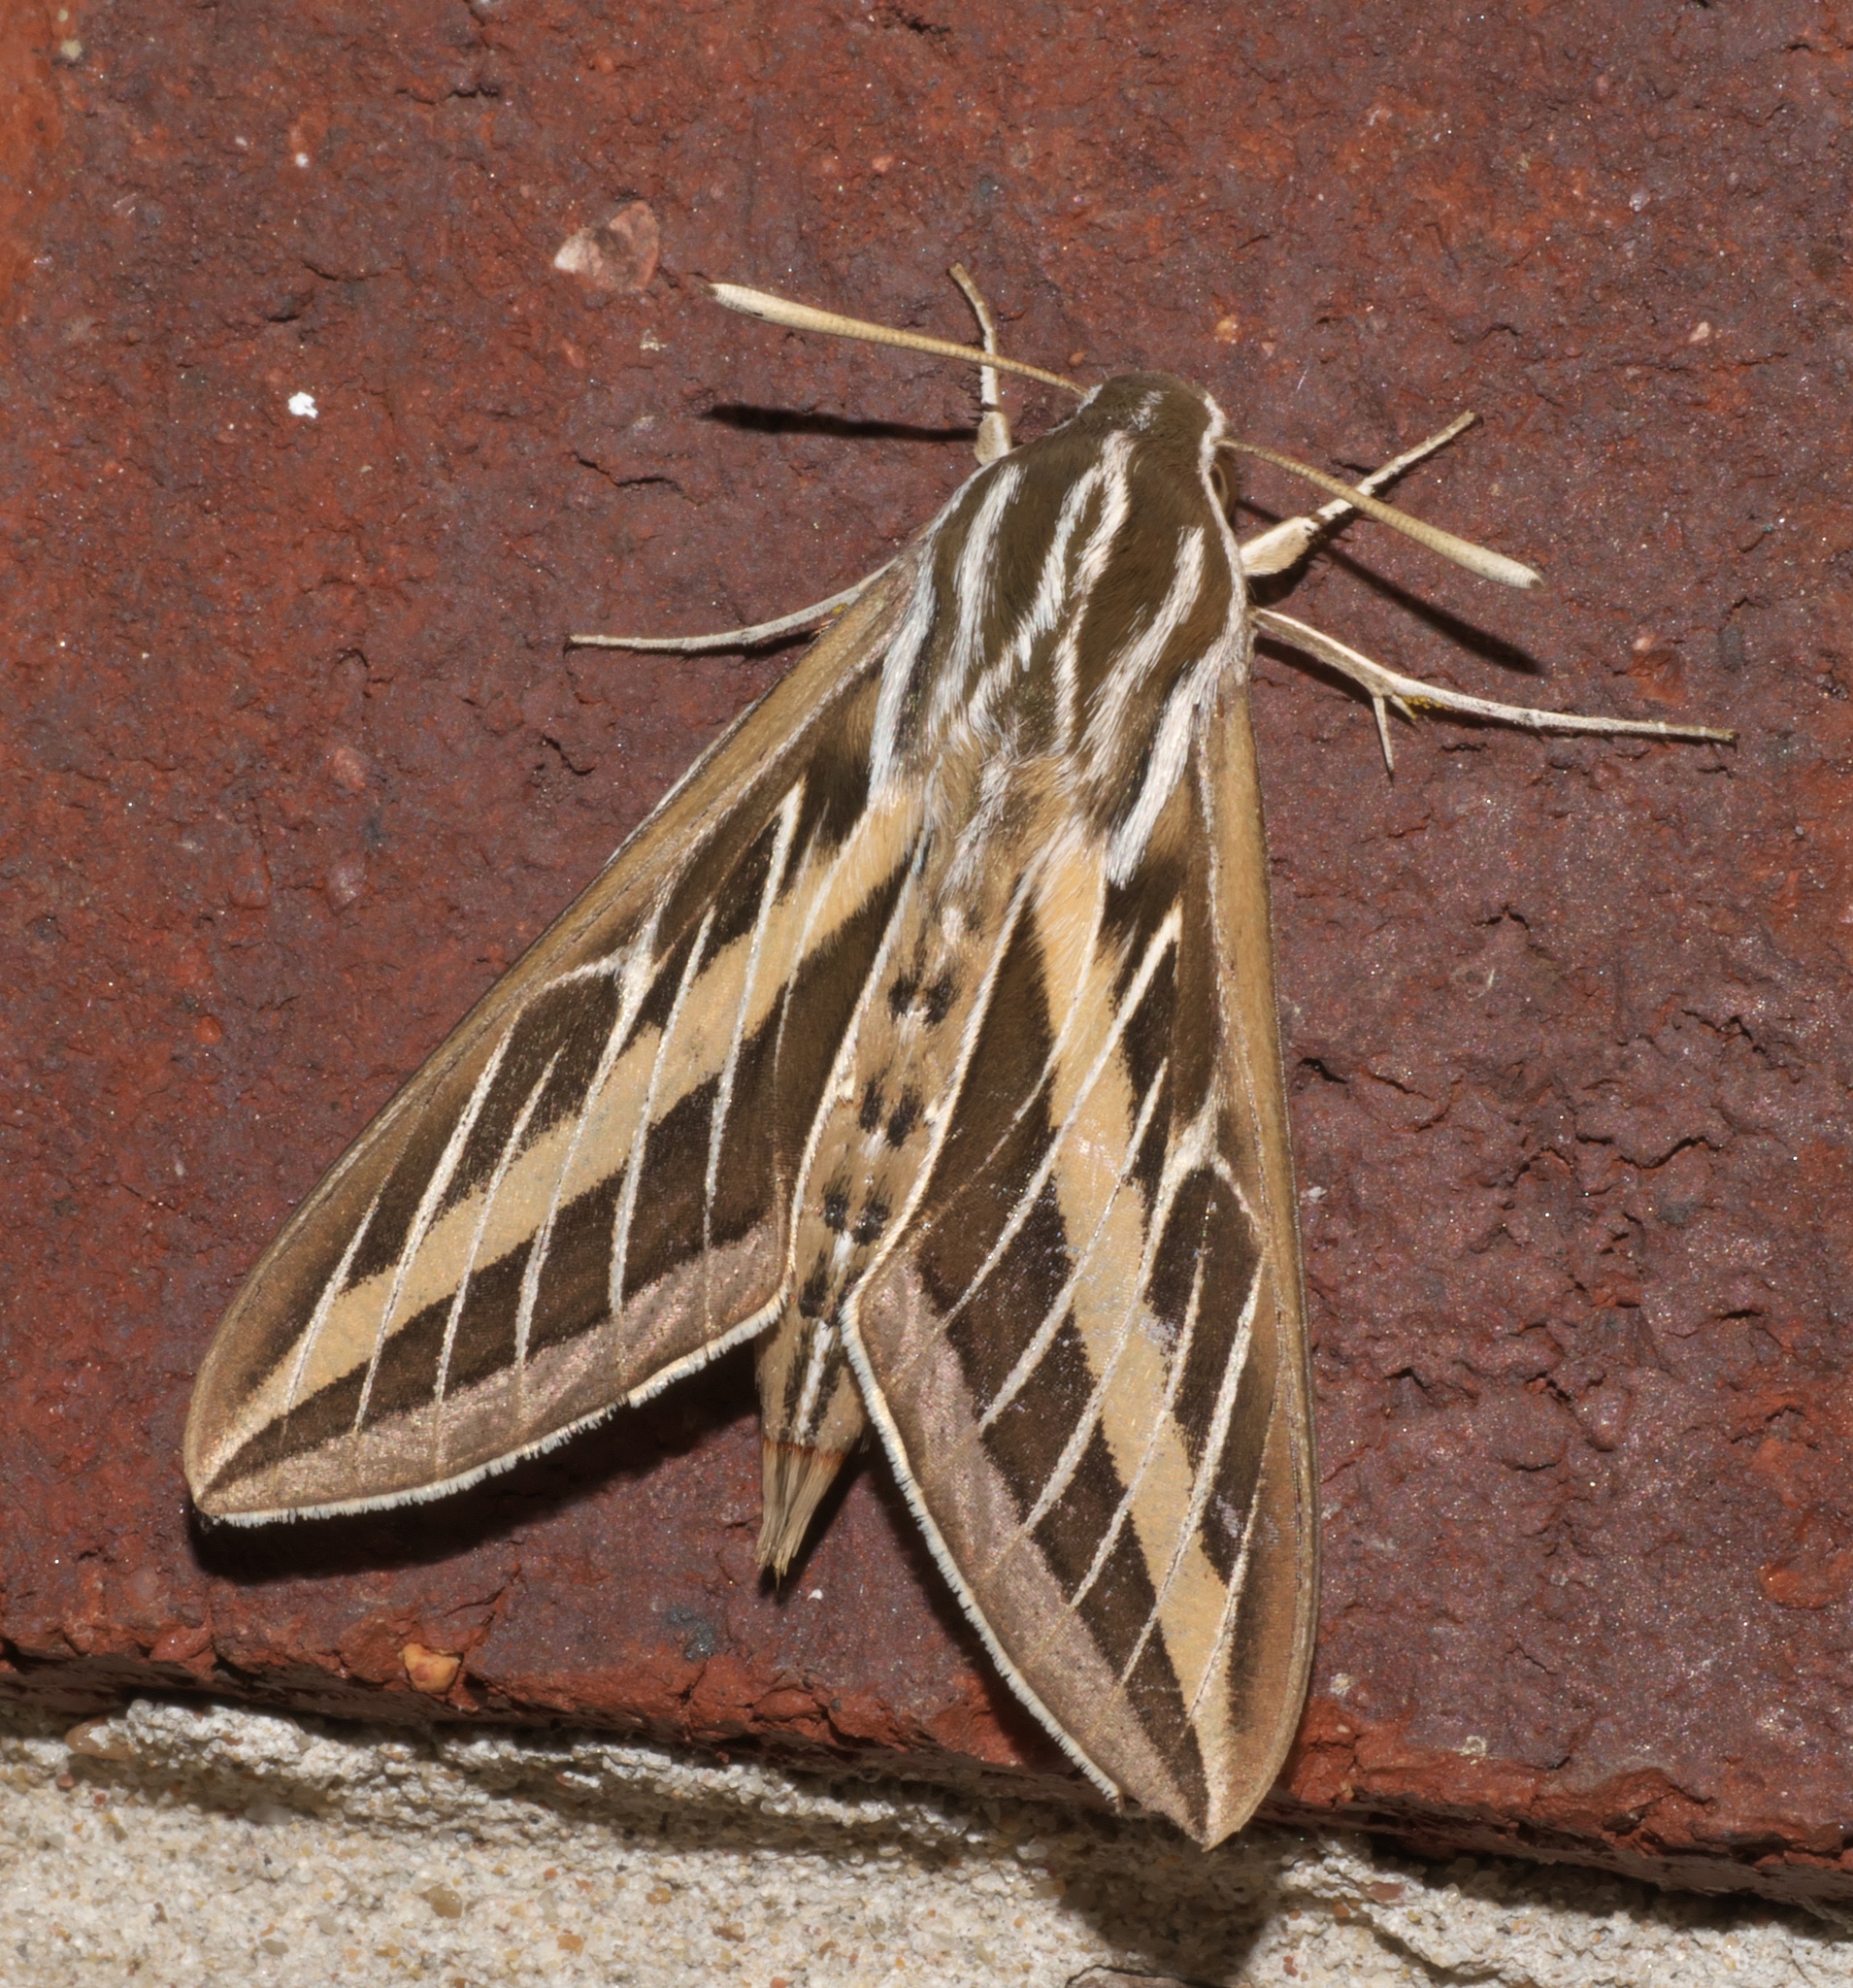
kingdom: Animalia
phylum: Arthropoda
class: Insecta
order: Lepidoptera
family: Sphingidae
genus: Hyles
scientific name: Hyles lineata
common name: White-lined sphinx
